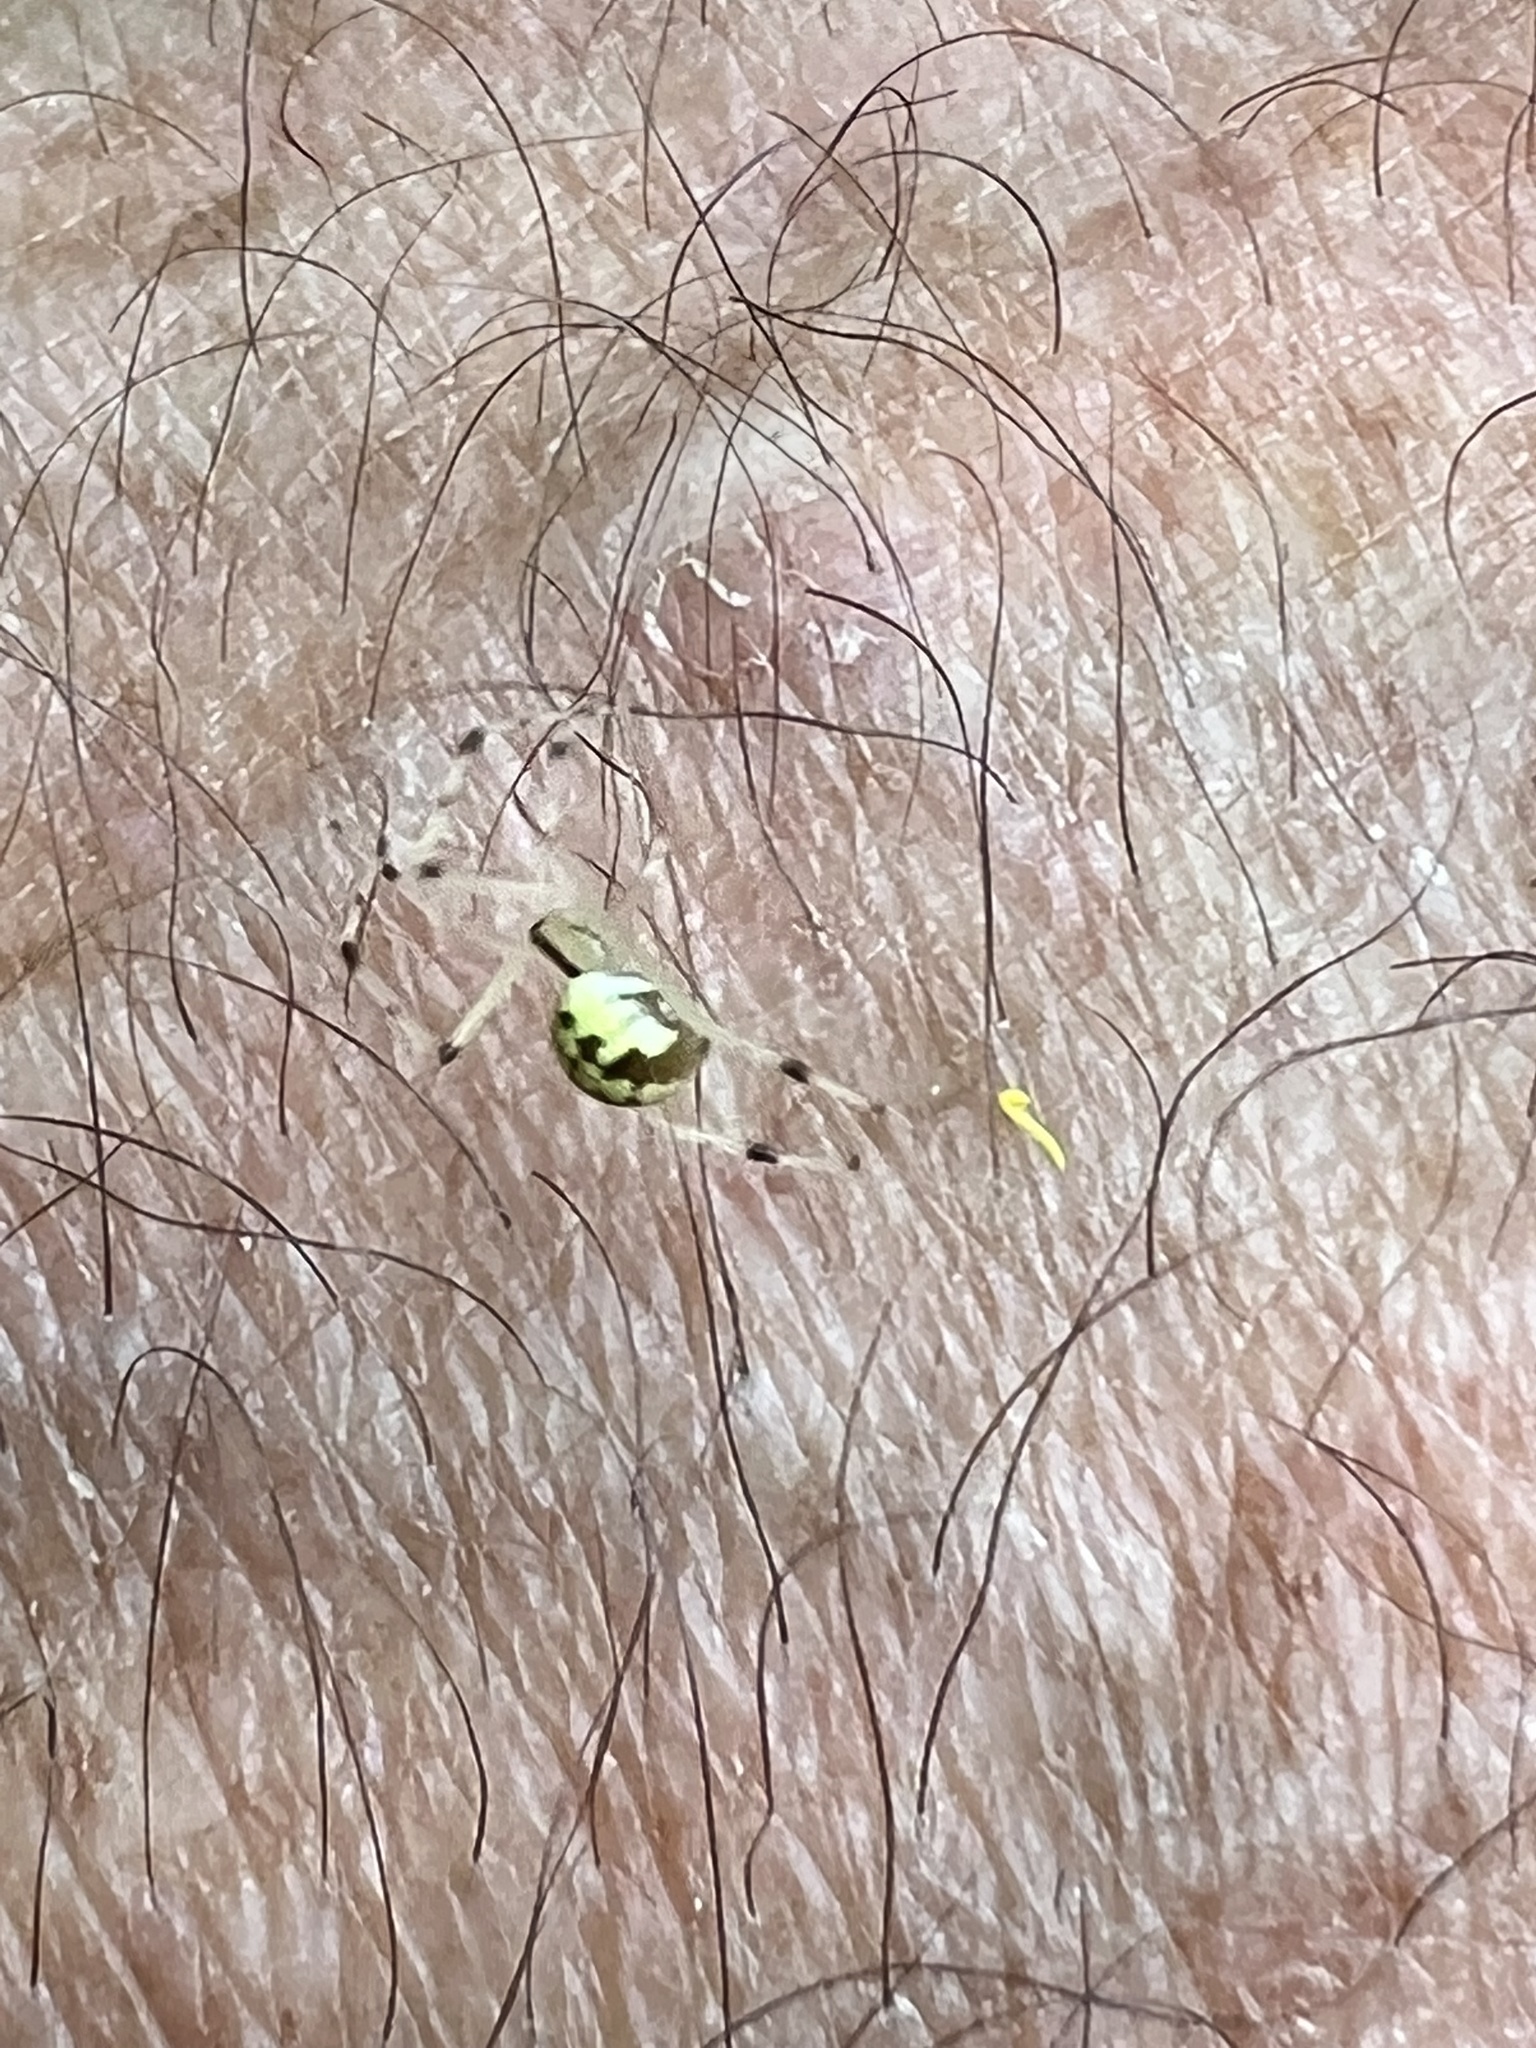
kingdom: Animalia
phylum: Arthropoda
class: Arachnida
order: Araneae
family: Theridiidae
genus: Phylloneta
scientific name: Phylloneta pictipes
